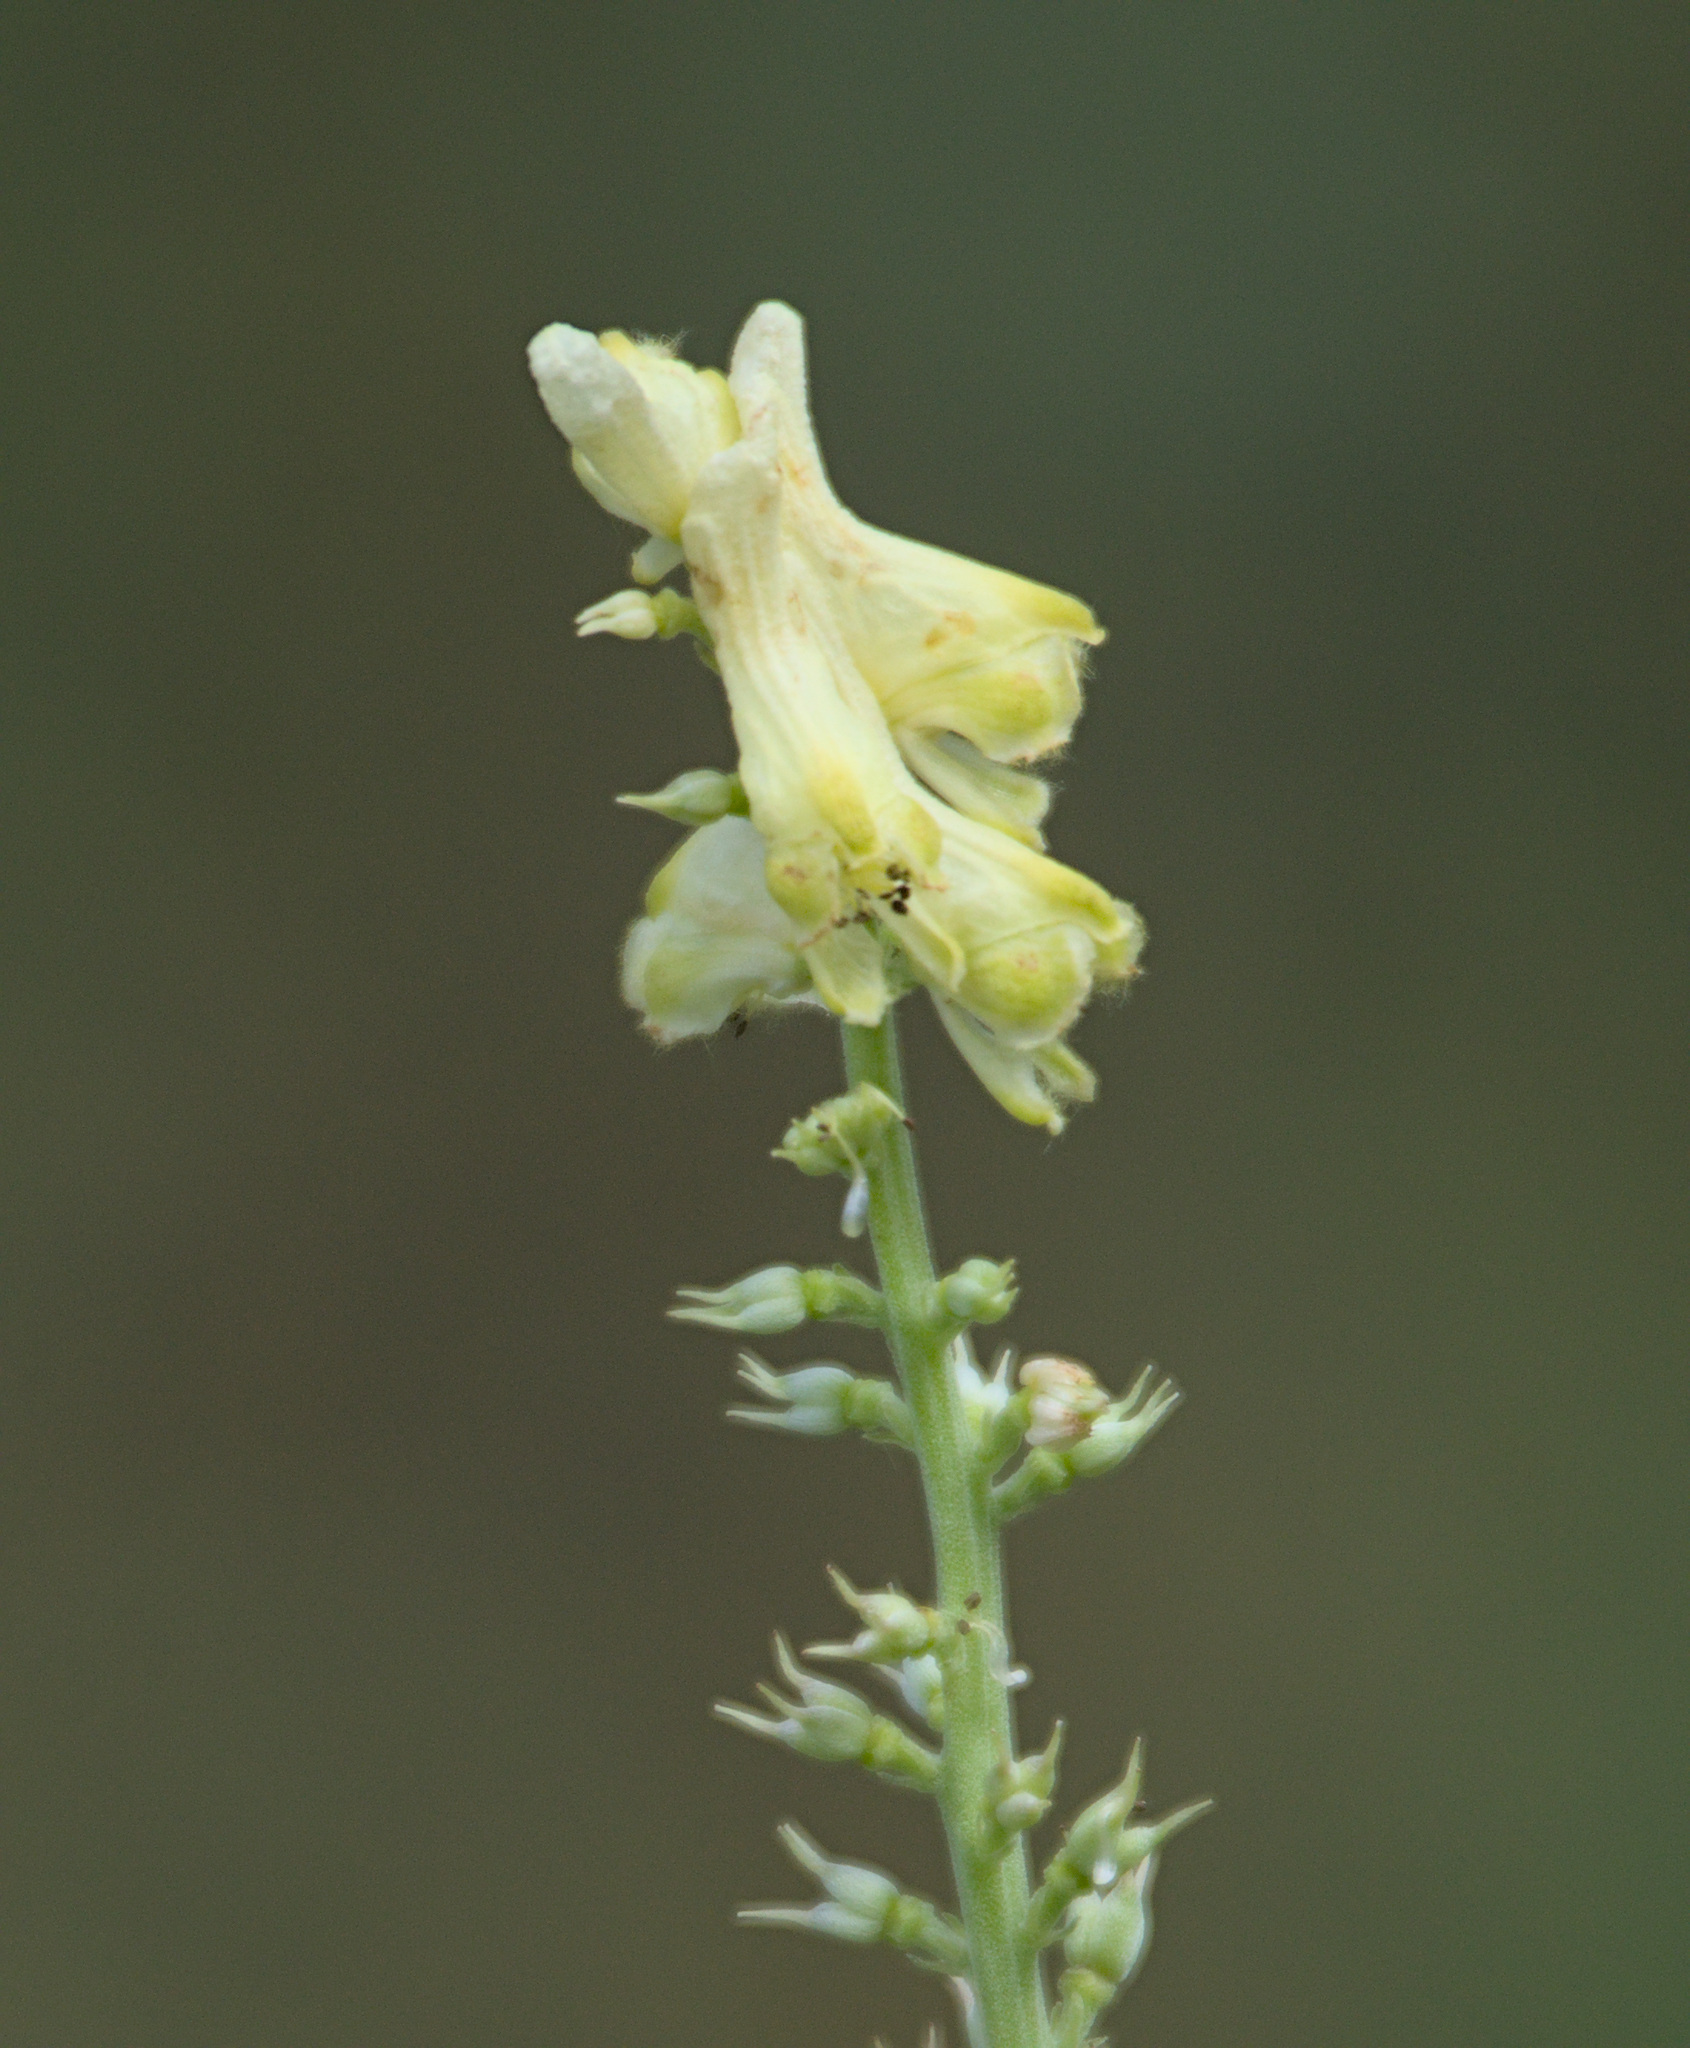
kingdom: Plantae
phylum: Tracheophyta
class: Magnoliopsida
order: Ranunculales
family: Ranunculaceae
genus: Aconitum
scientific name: Aconitum barbatum
